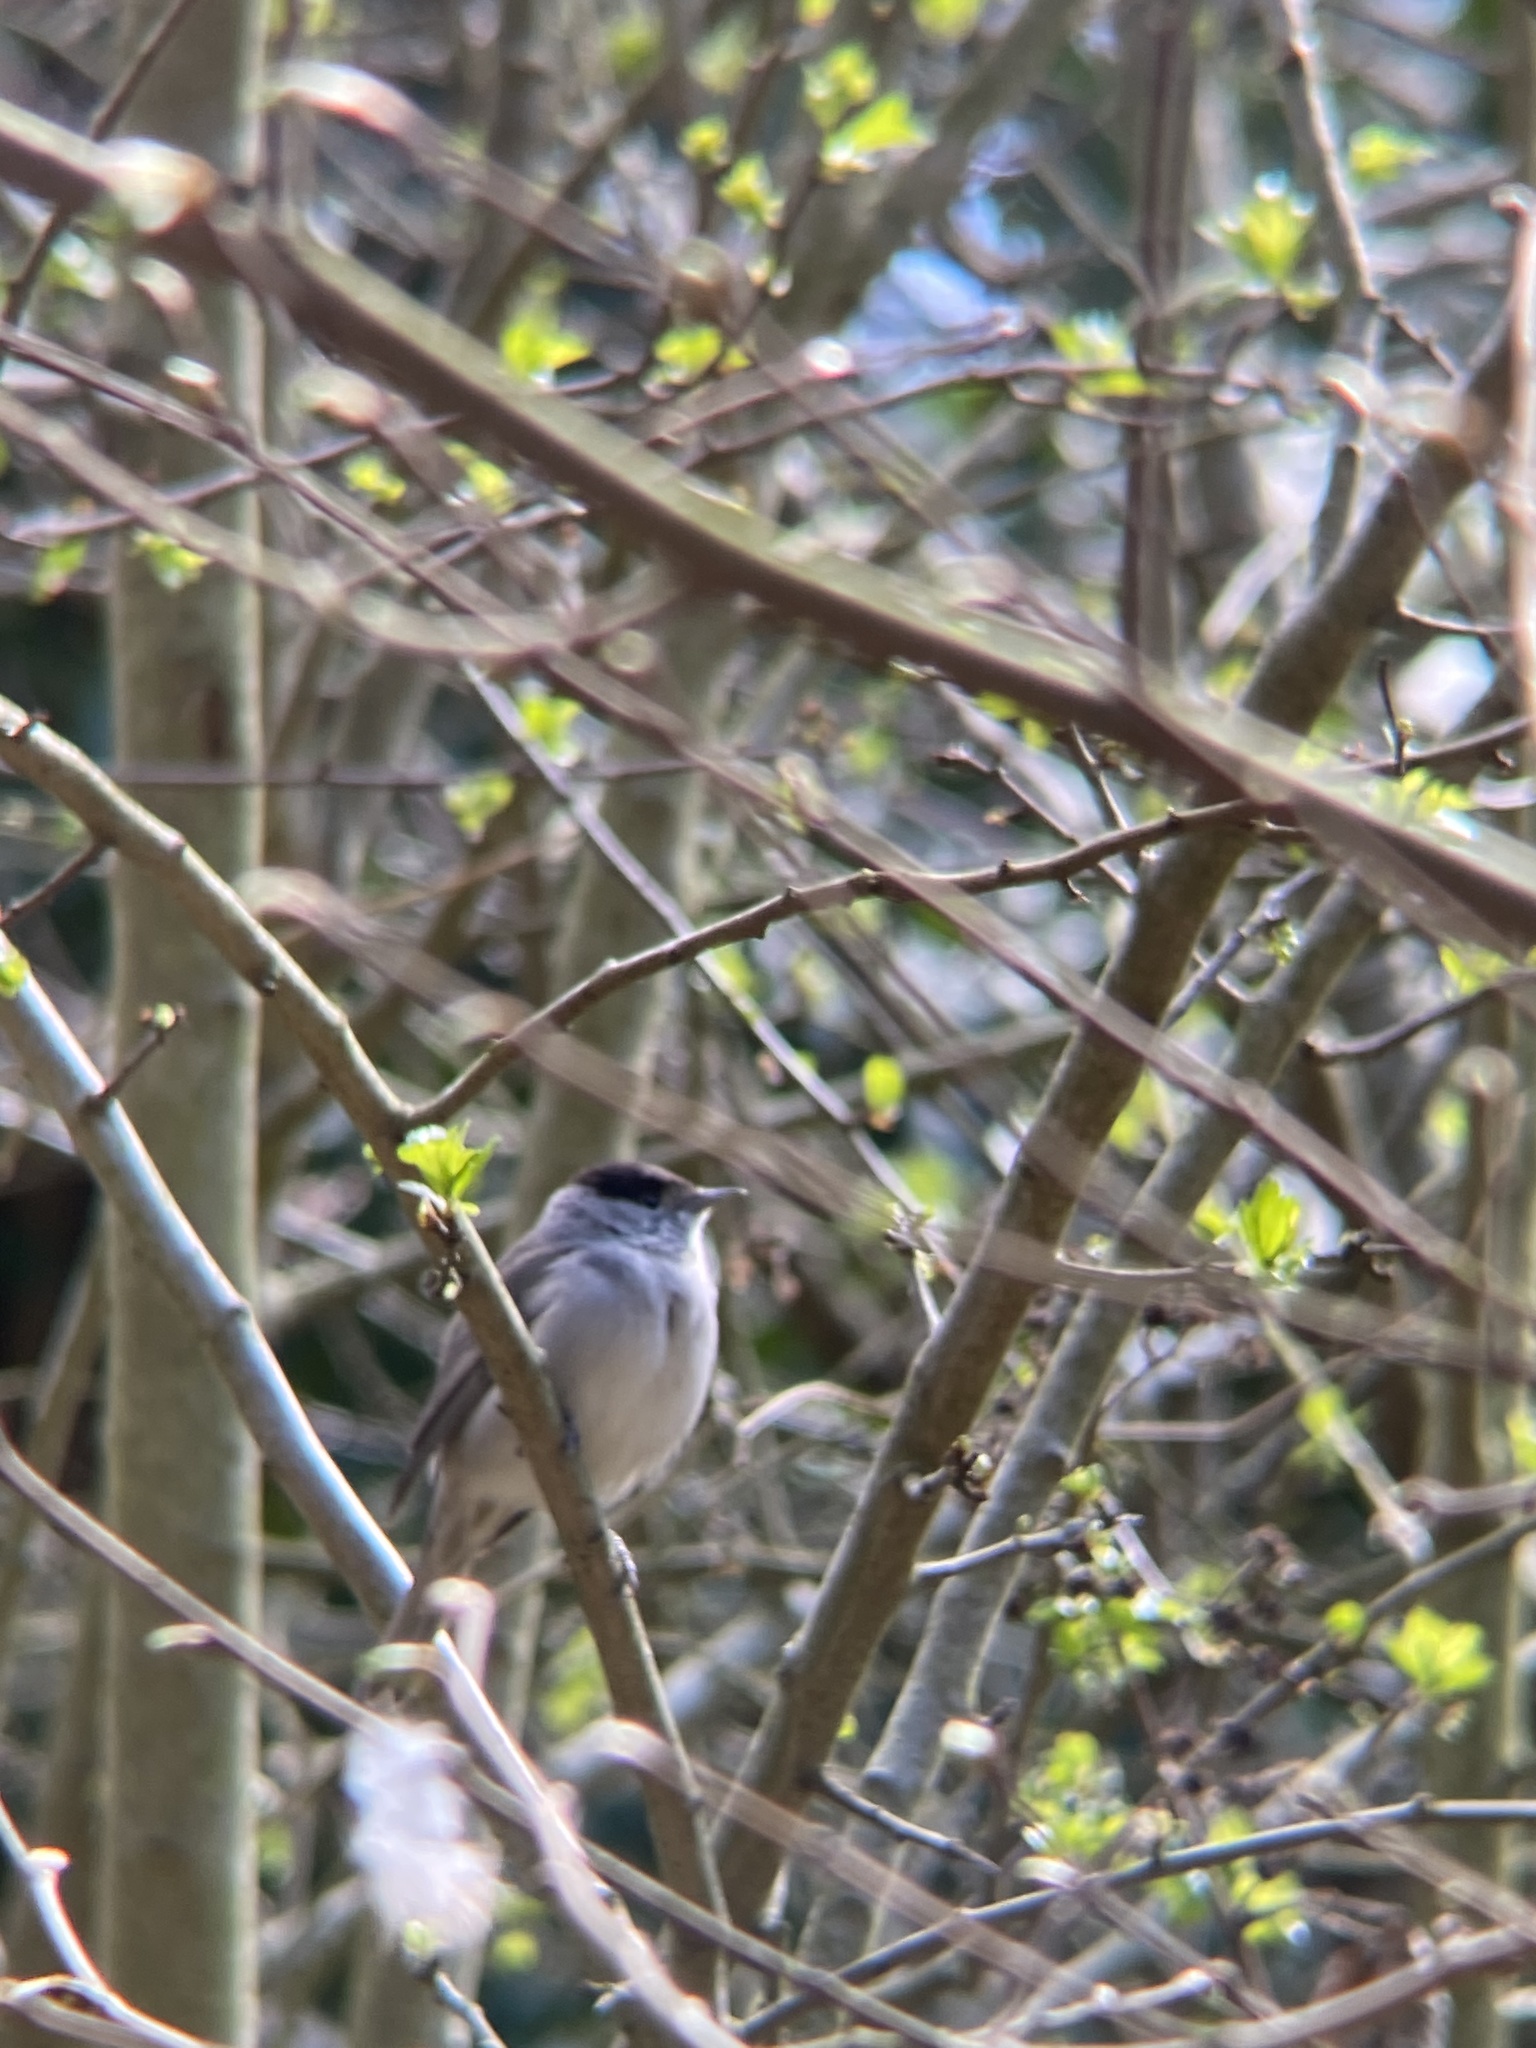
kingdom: Animalia
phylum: Chordata
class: Aves
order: Passeriformes
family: Sylviidae
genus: Sylvia
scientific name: Sylvia atricapilla
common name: Eurasian blackcap
